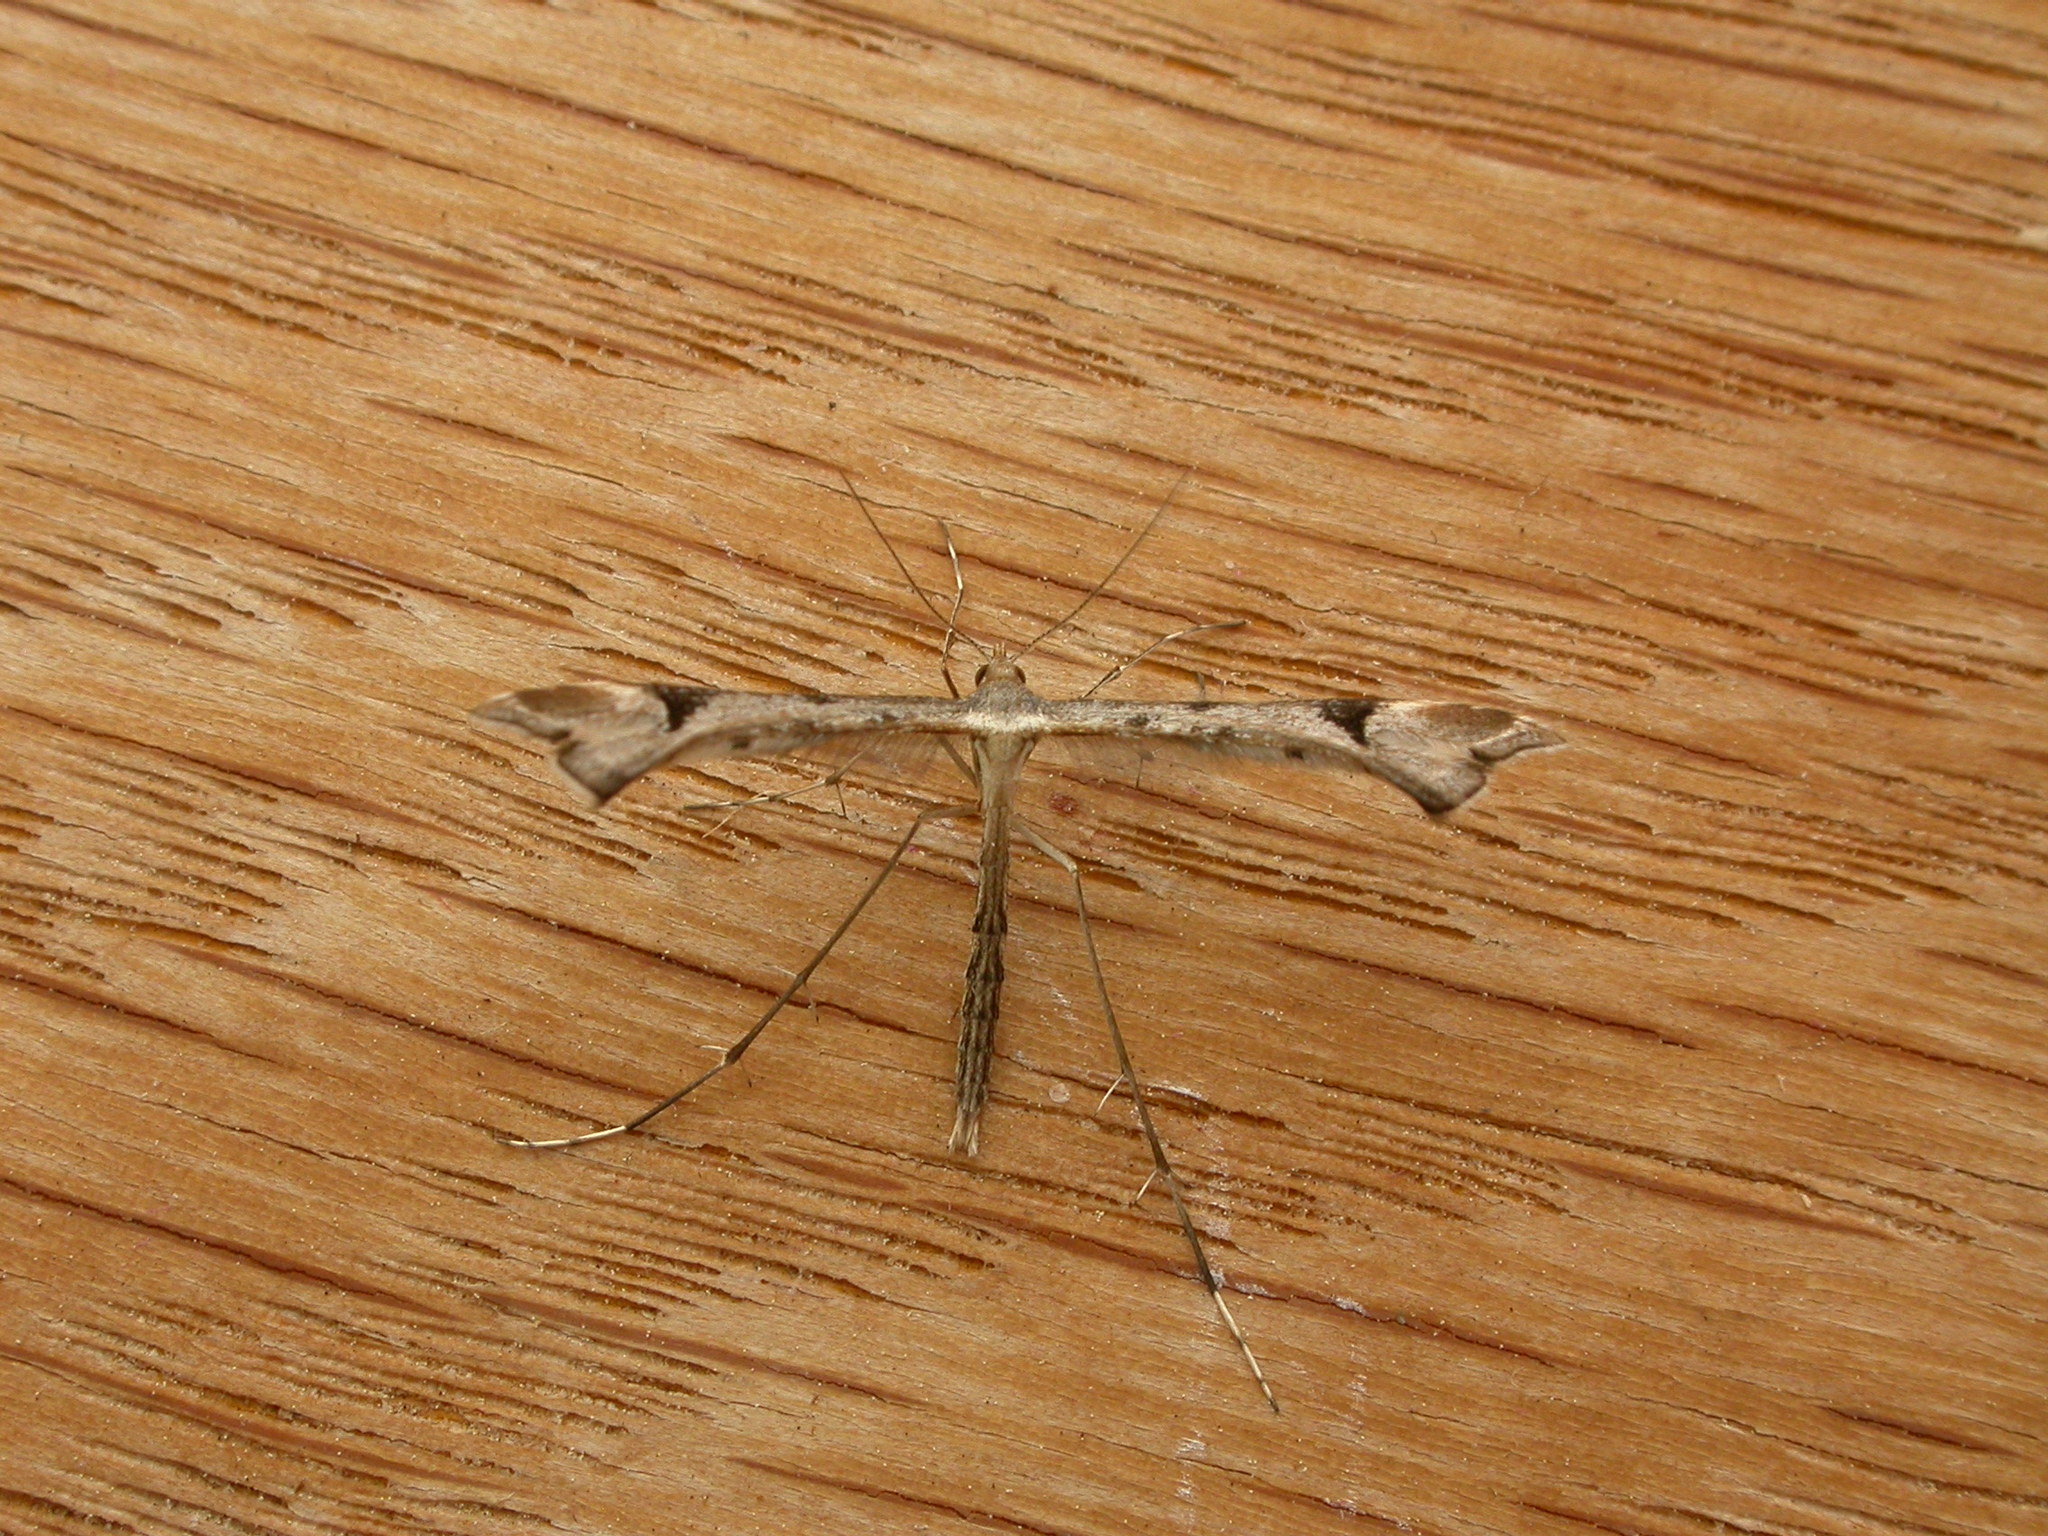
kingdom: Animalia
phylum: Arthropoda
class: Insecta
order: Lepidoptera
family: Pterophoridae
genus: Sinpunctiptilia
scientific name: Sinpunctiptilia emissalis
